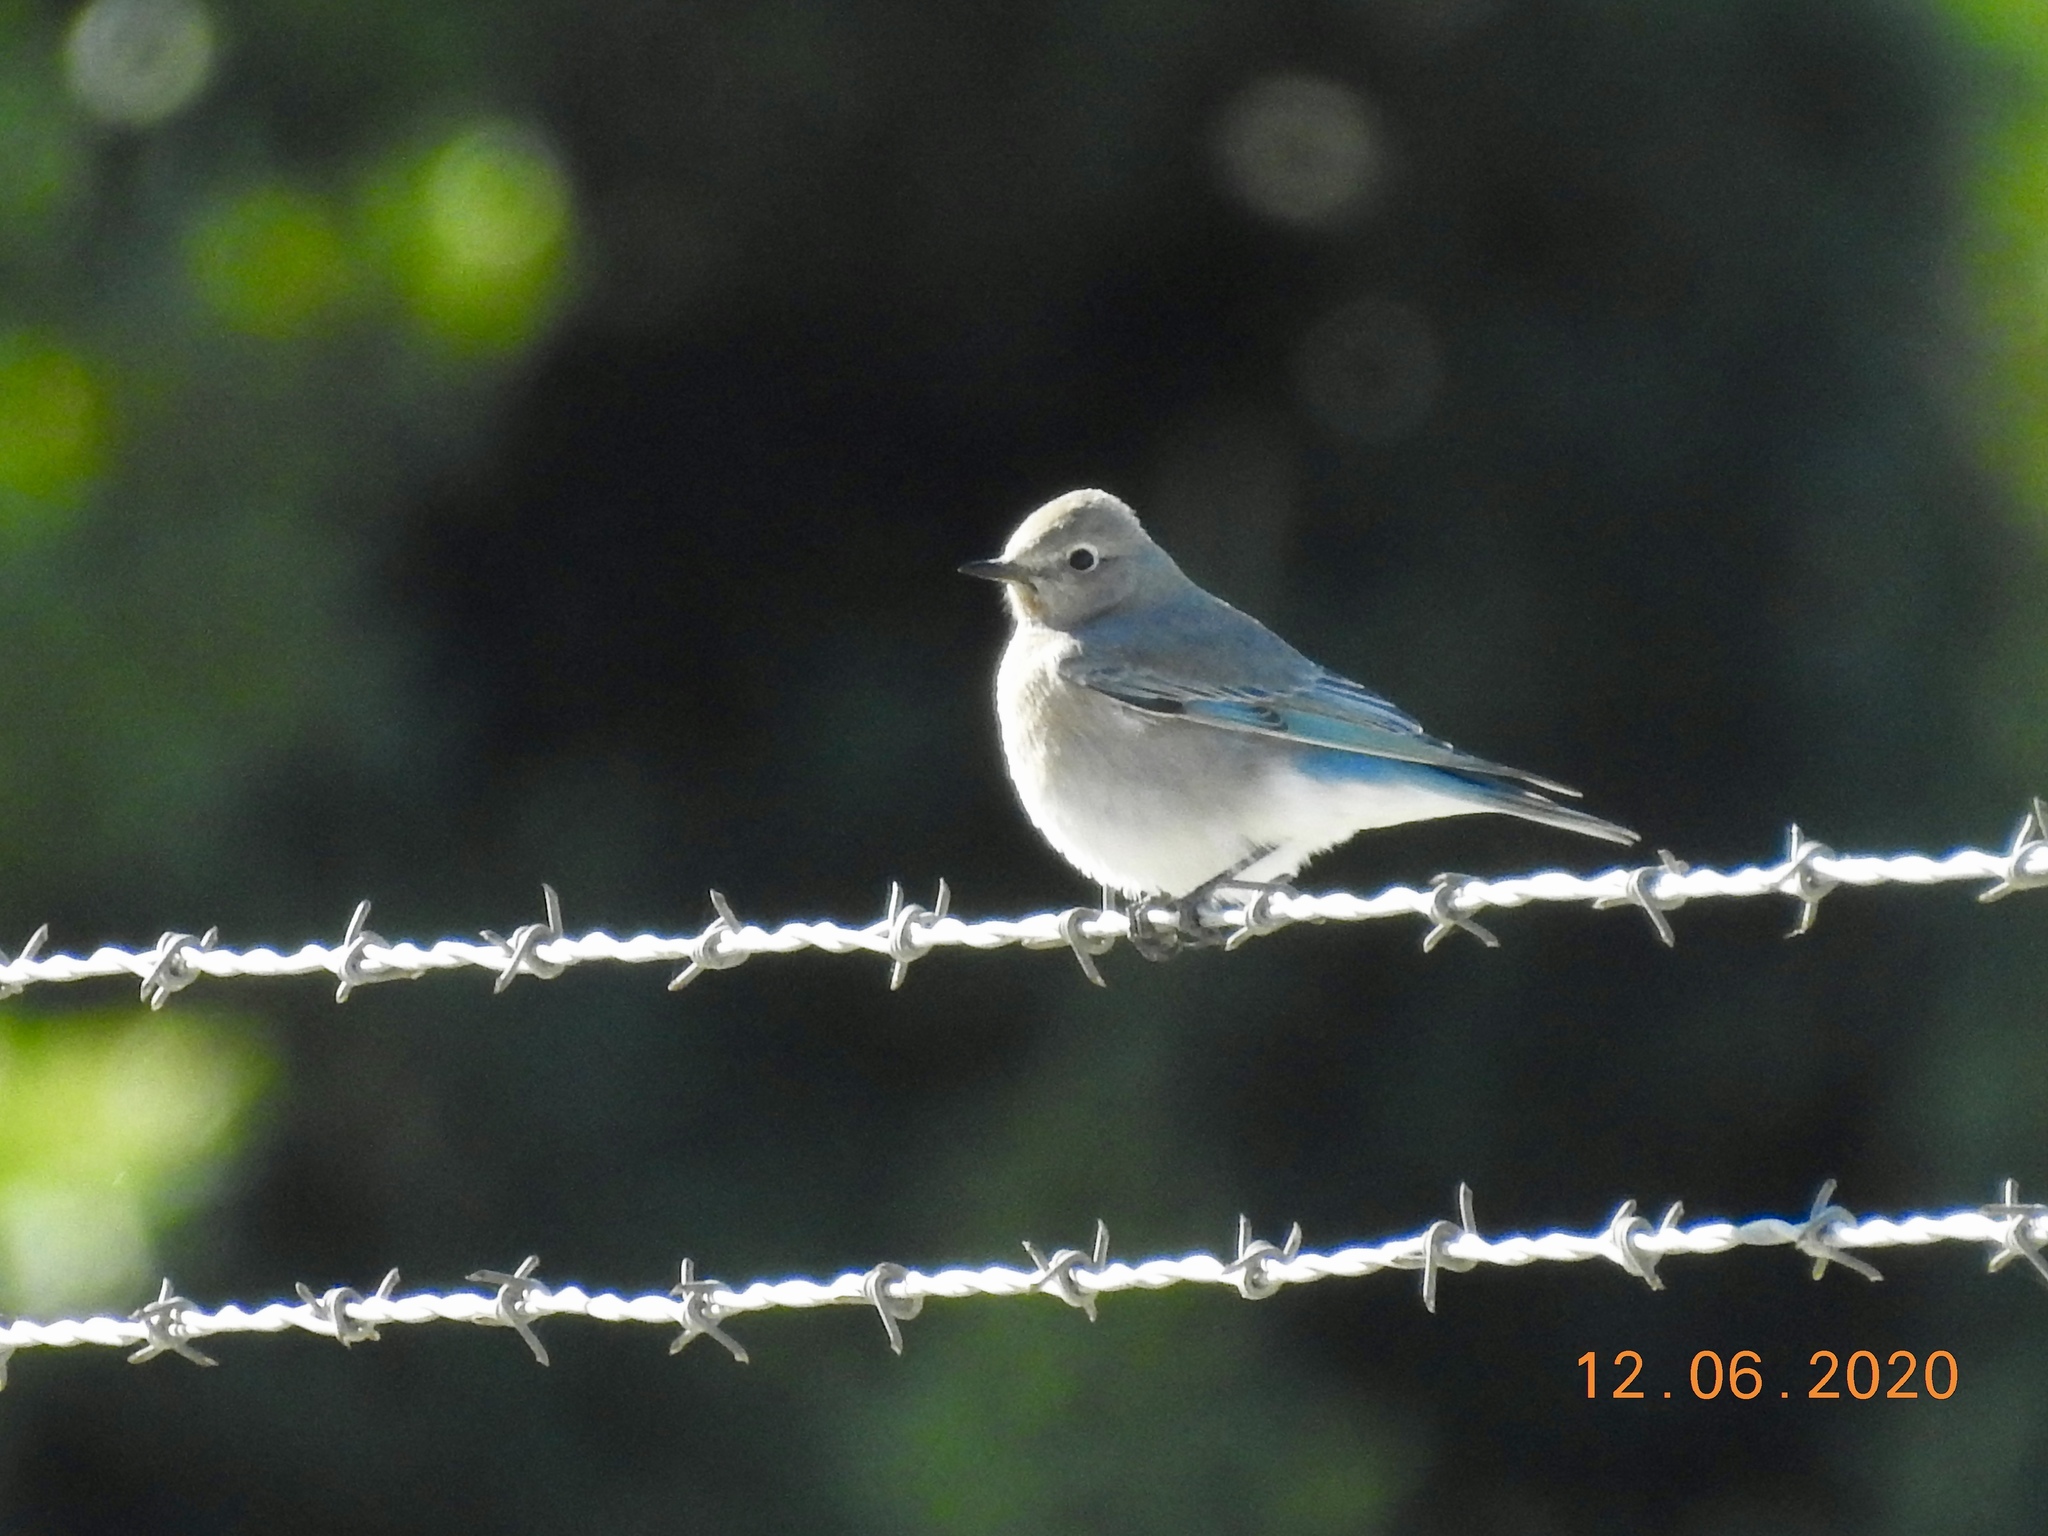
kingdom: Animalia
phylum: Chordata
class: Aves
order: Passeriformes
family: Turdidae
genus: Sialia
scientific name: Sialia currucoides
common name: Mountain bluebird
